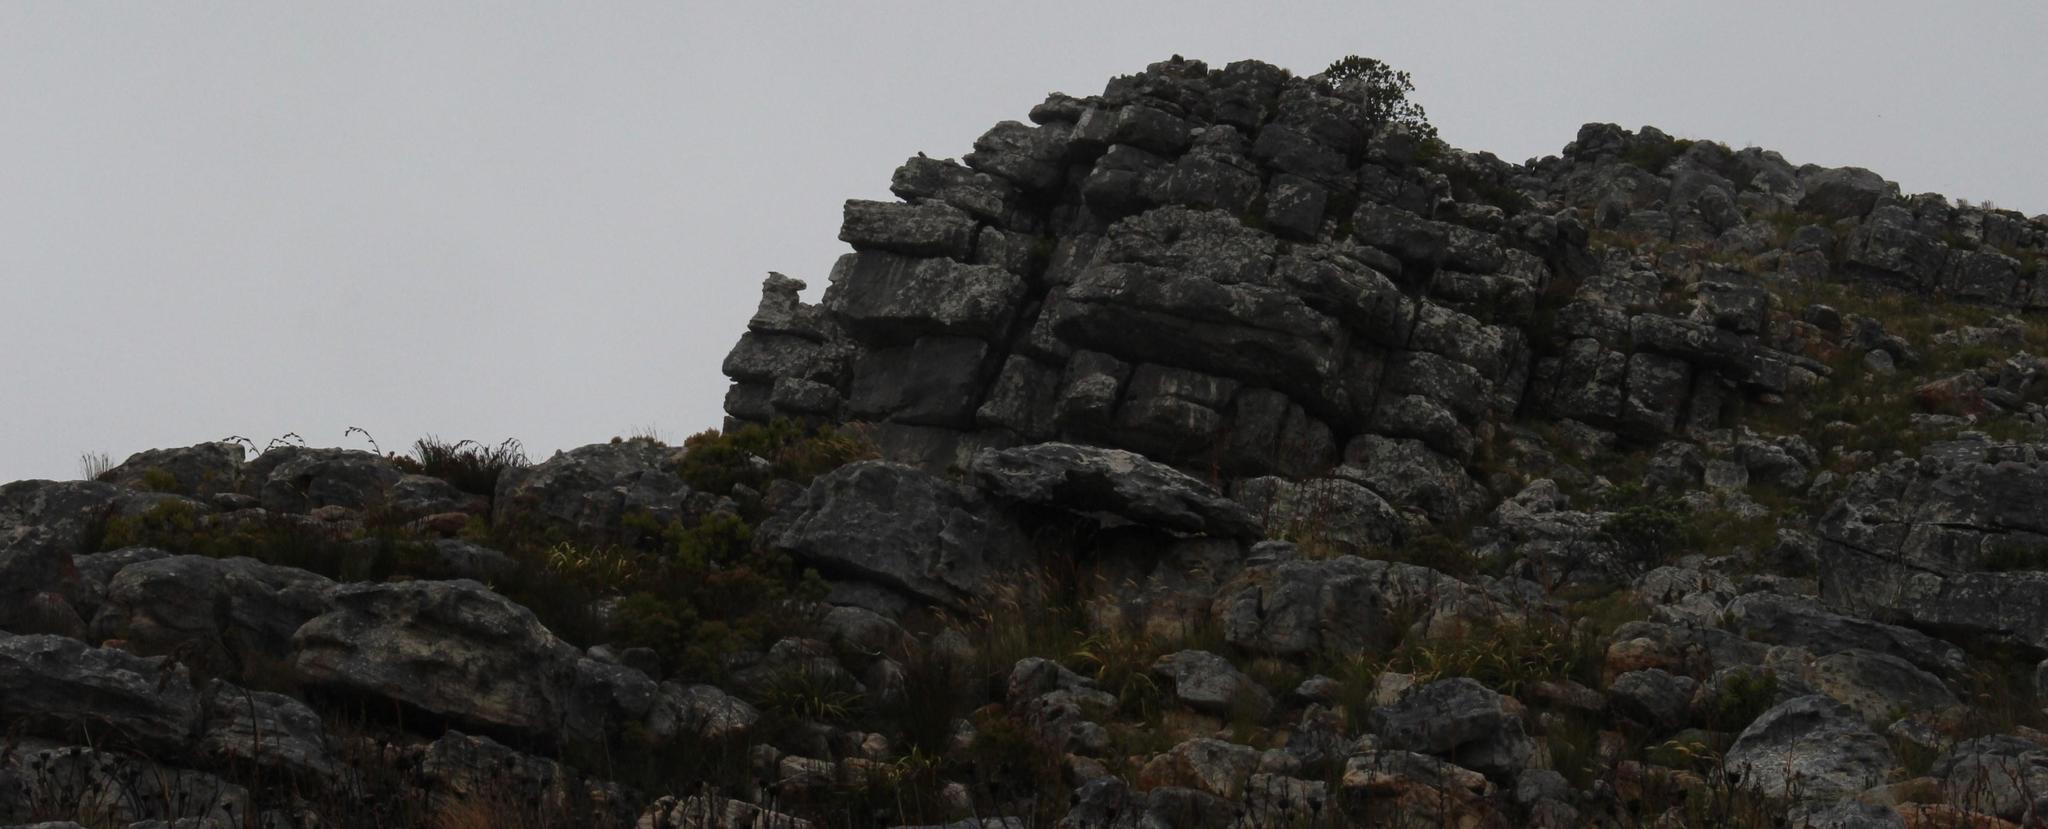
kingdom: Animalia
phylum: Chordata
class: Mammalia
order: Hyracoidea
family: Procaviidae
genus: Procavia
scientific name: Procavia capensis
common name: Rock hyrax
